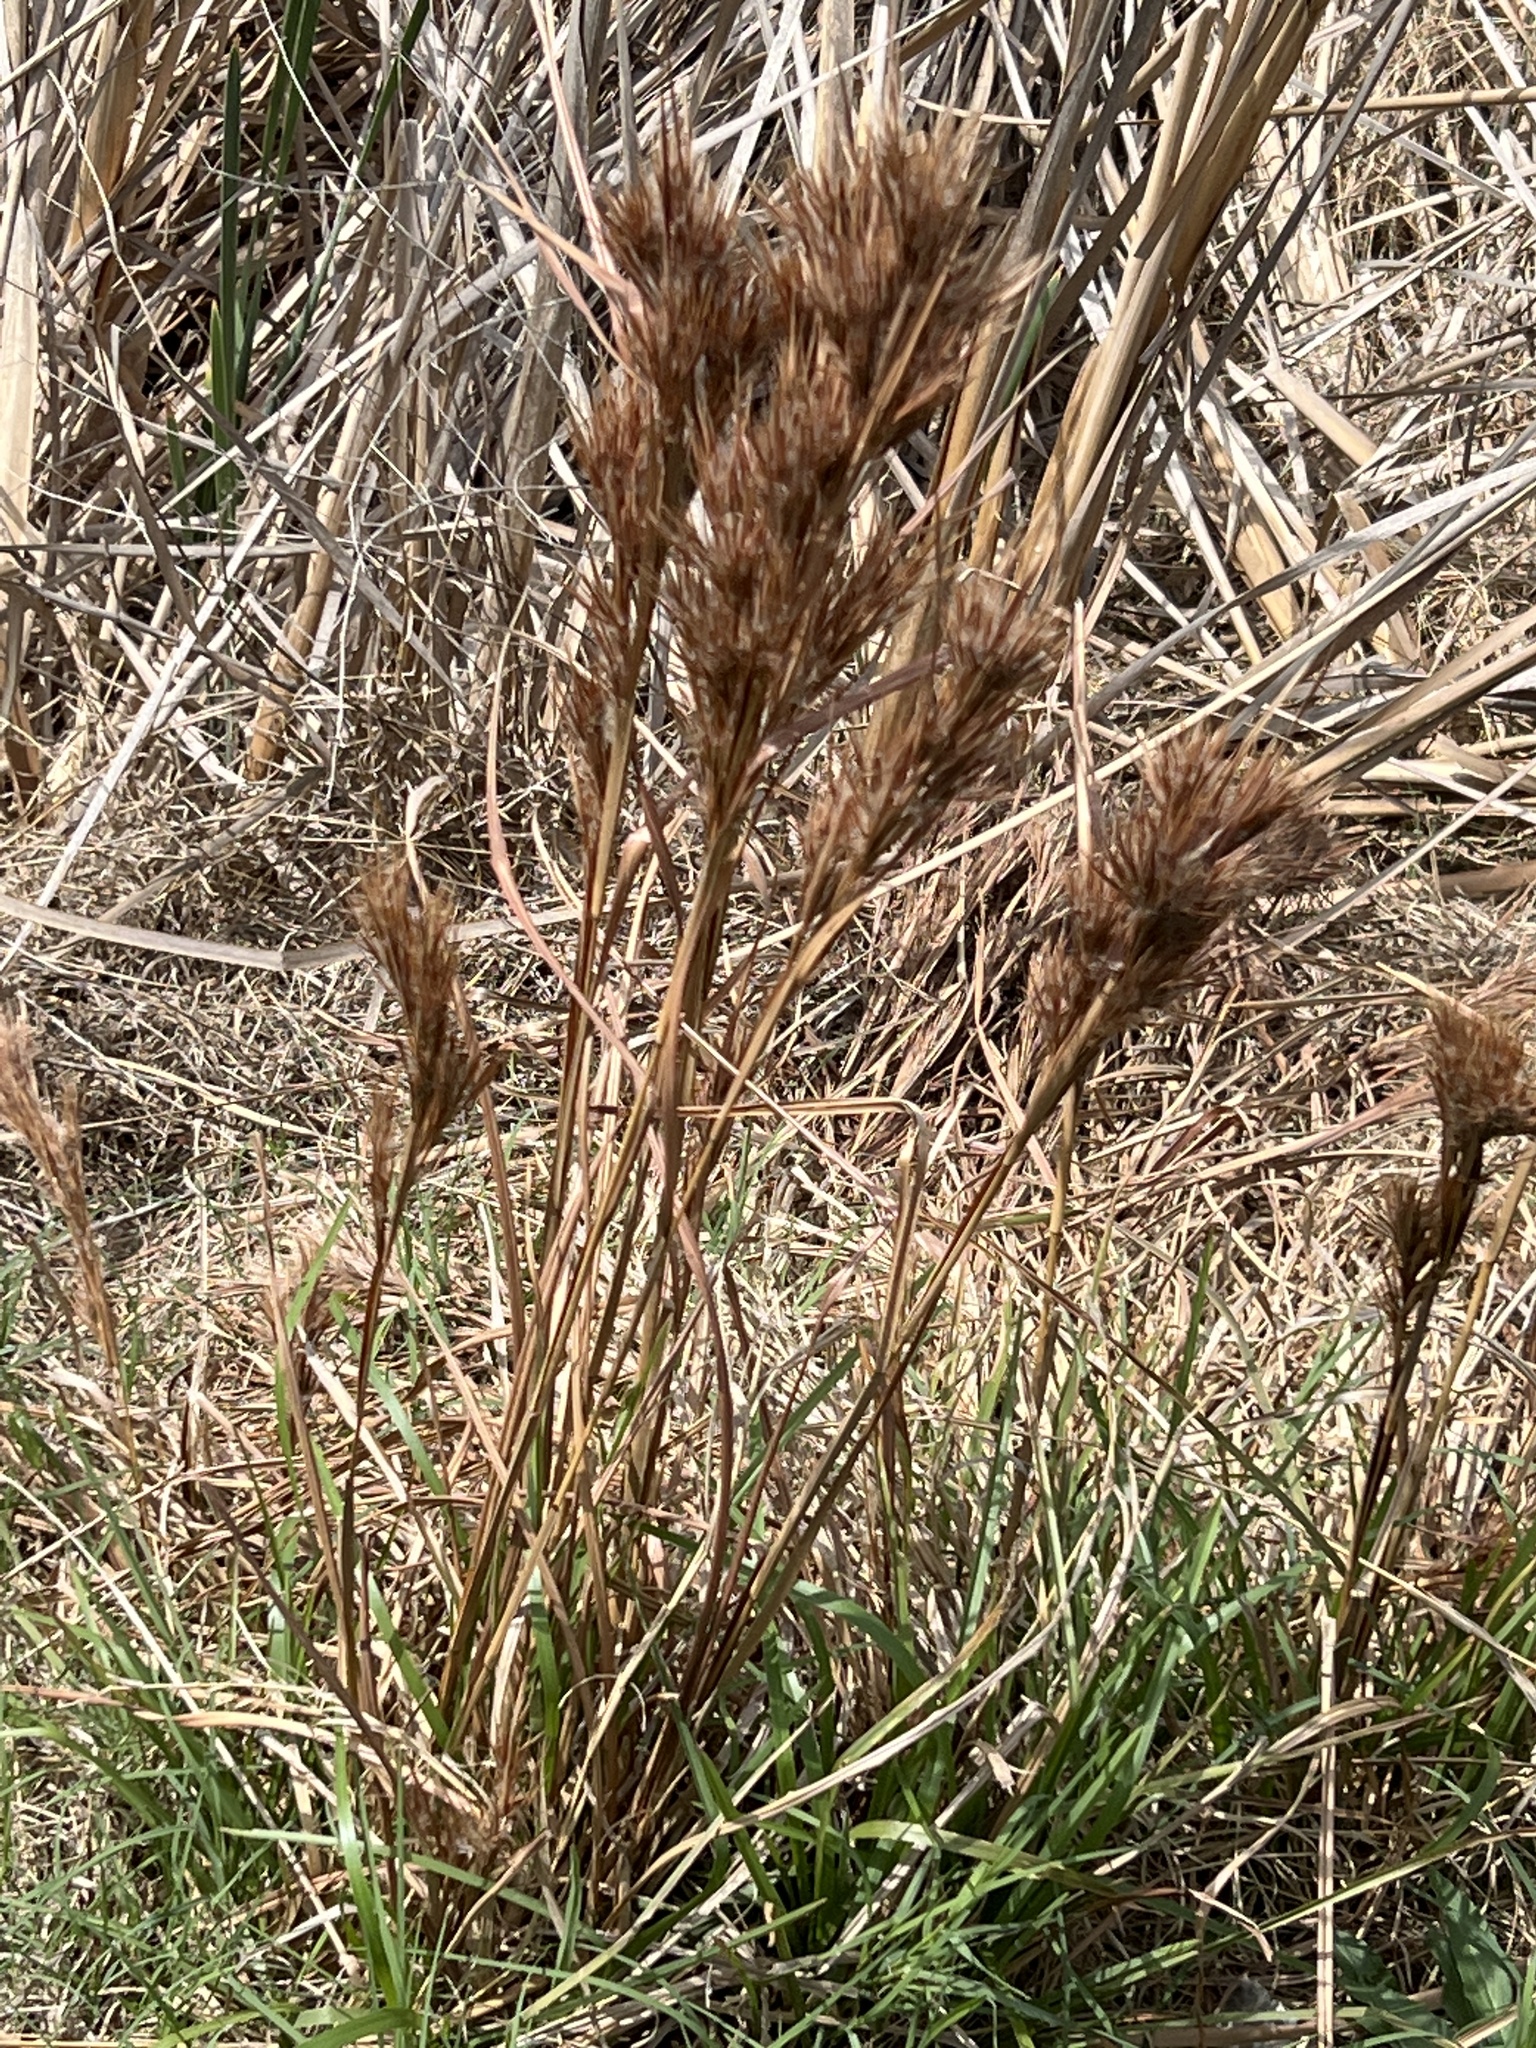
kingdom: Plantae
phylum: Tracheophyta
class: Liliopsida
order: Poales
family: Poaceae
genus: Andropogon
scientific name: Andropogon tenuispatheus
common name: Bushy bluestem
